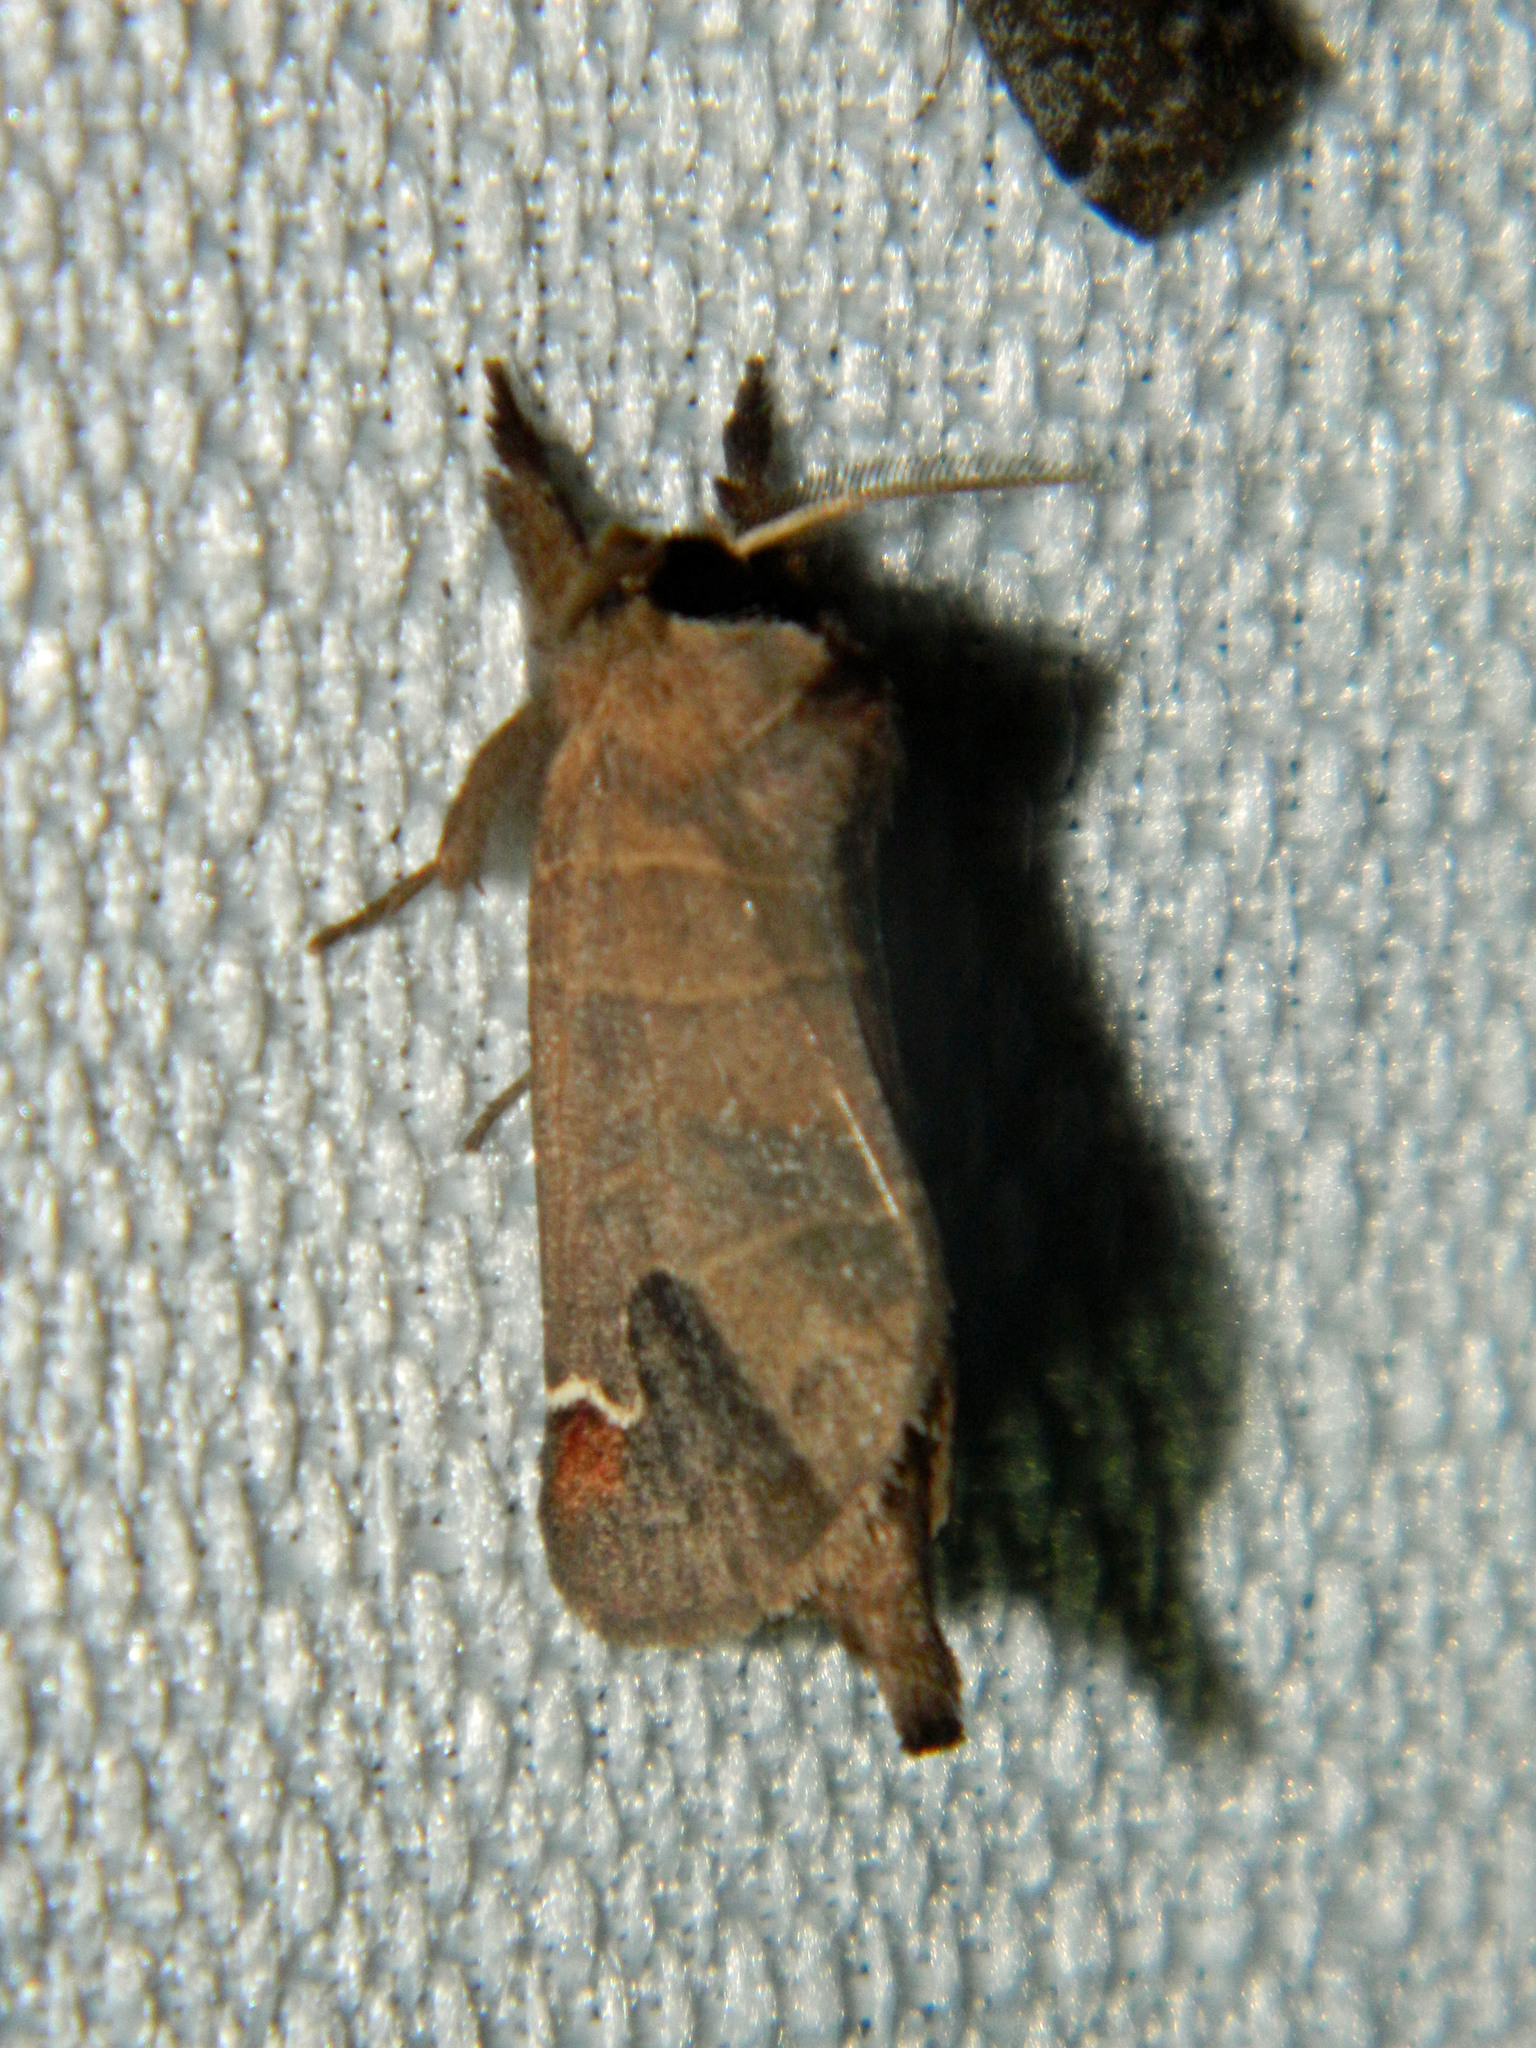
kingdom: Animalia
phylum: Arthropoda
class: Insecta
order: Lepidoptera
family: Notodontidae
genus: Clostera
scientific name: Clostera albosigma
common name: Sigmoid prominent
